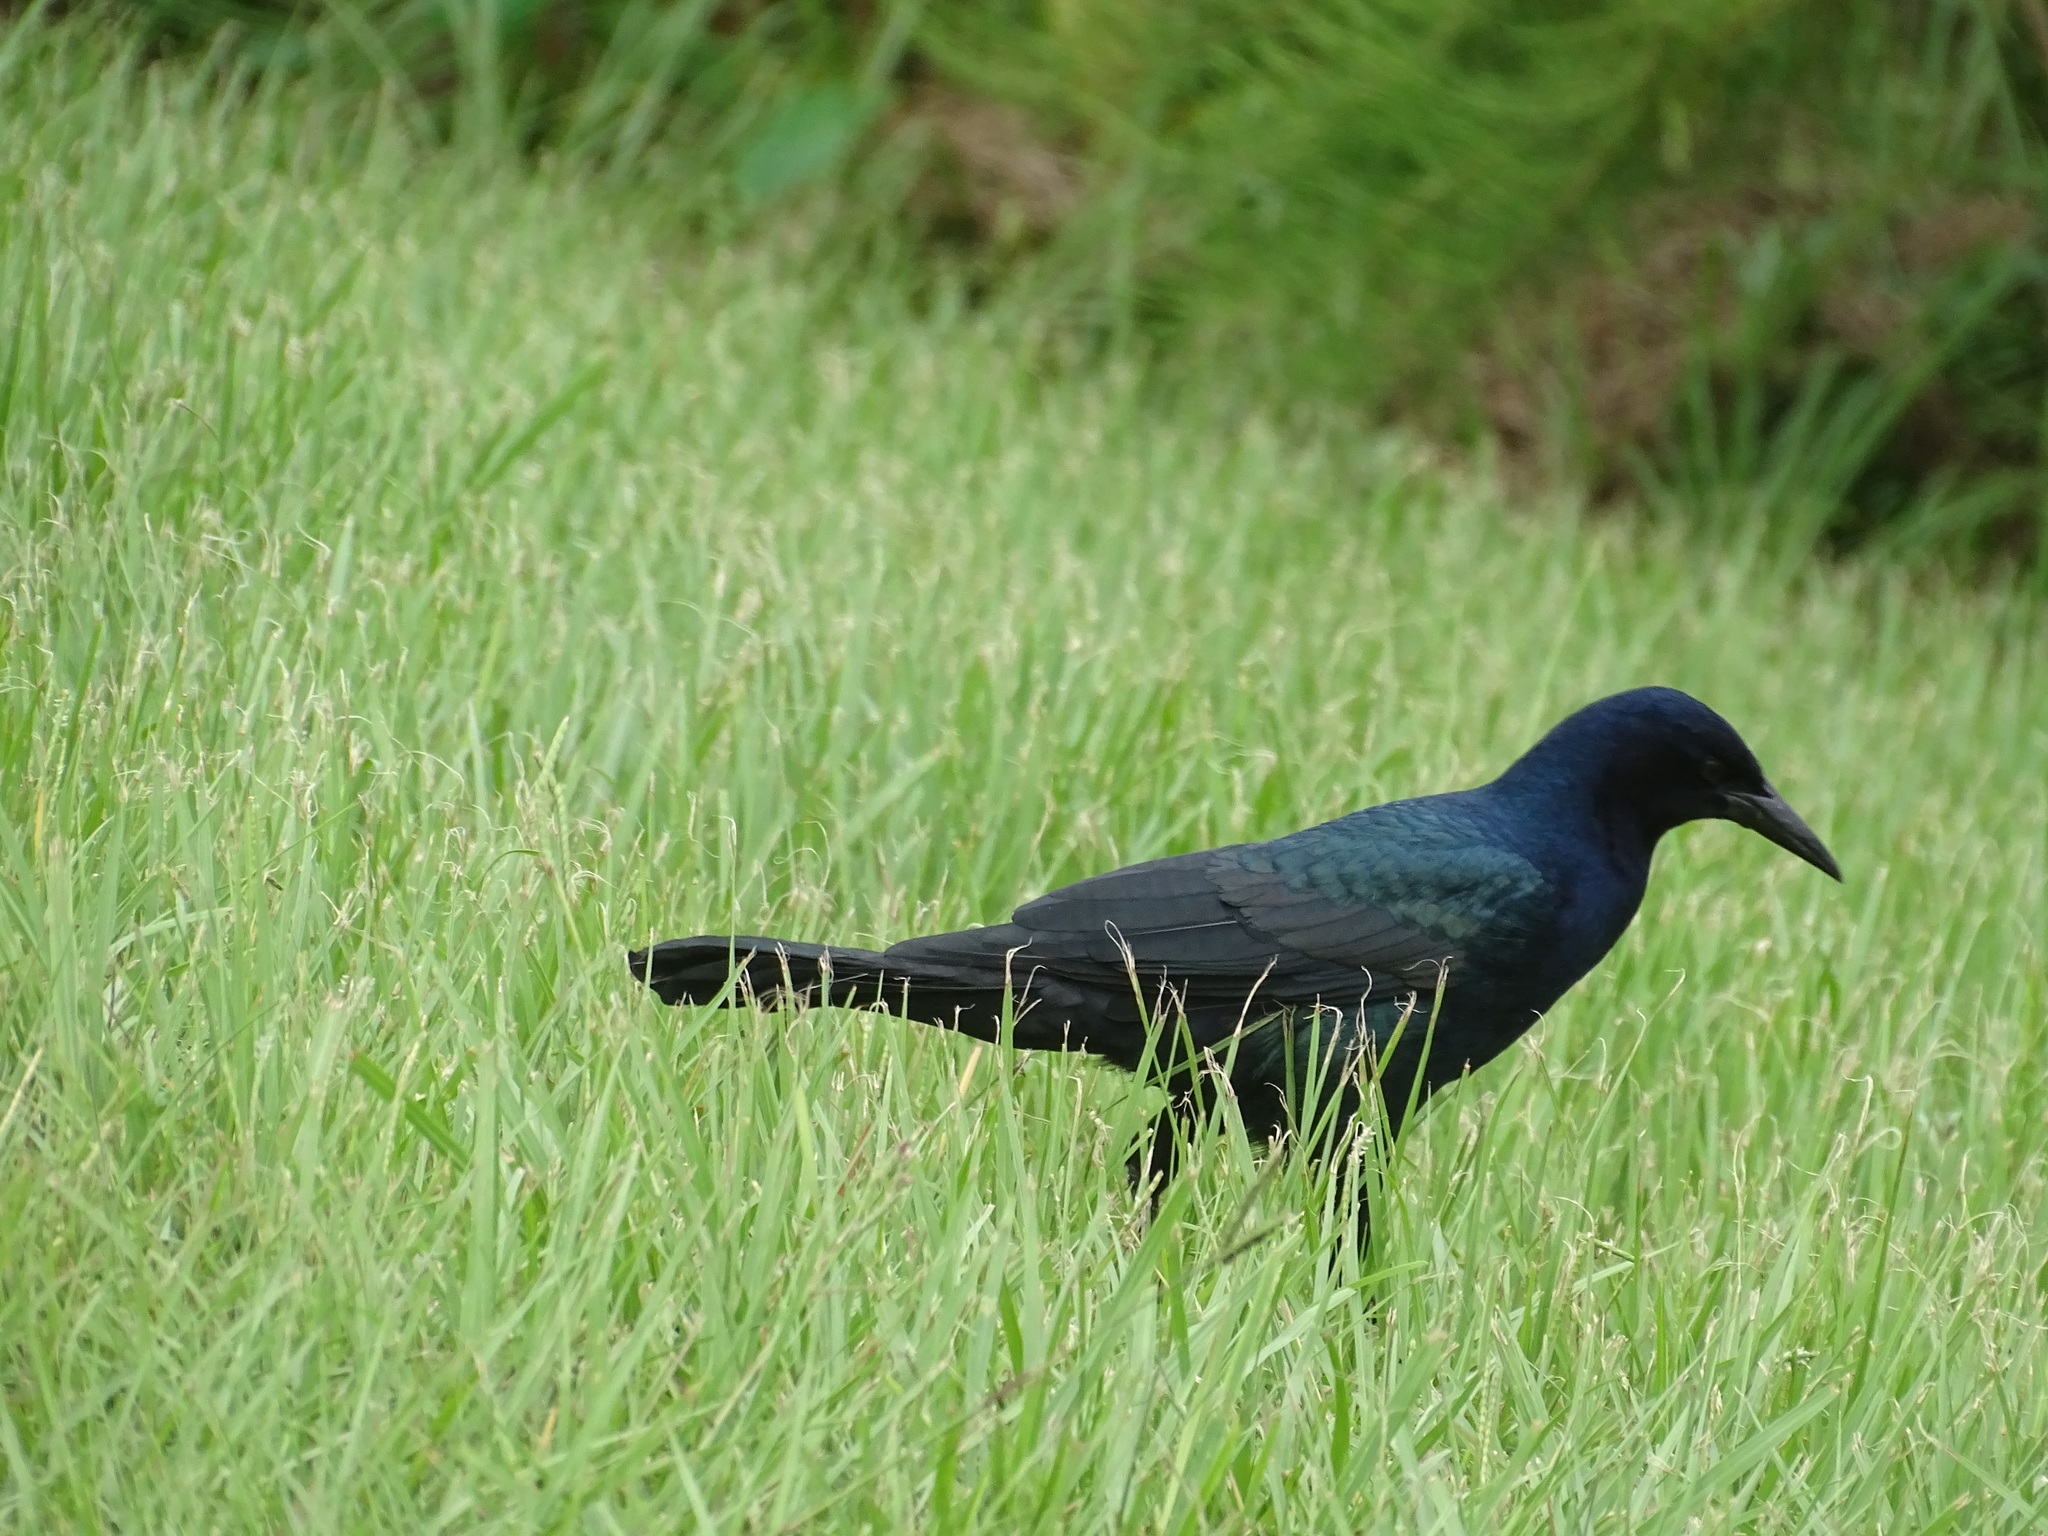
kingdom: Animalia
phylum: Chordata
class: Aves
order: Passeriformes
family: Icteridae
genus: Quiscalus
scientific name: Quiscalus major
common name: Boat-tailed grackle
